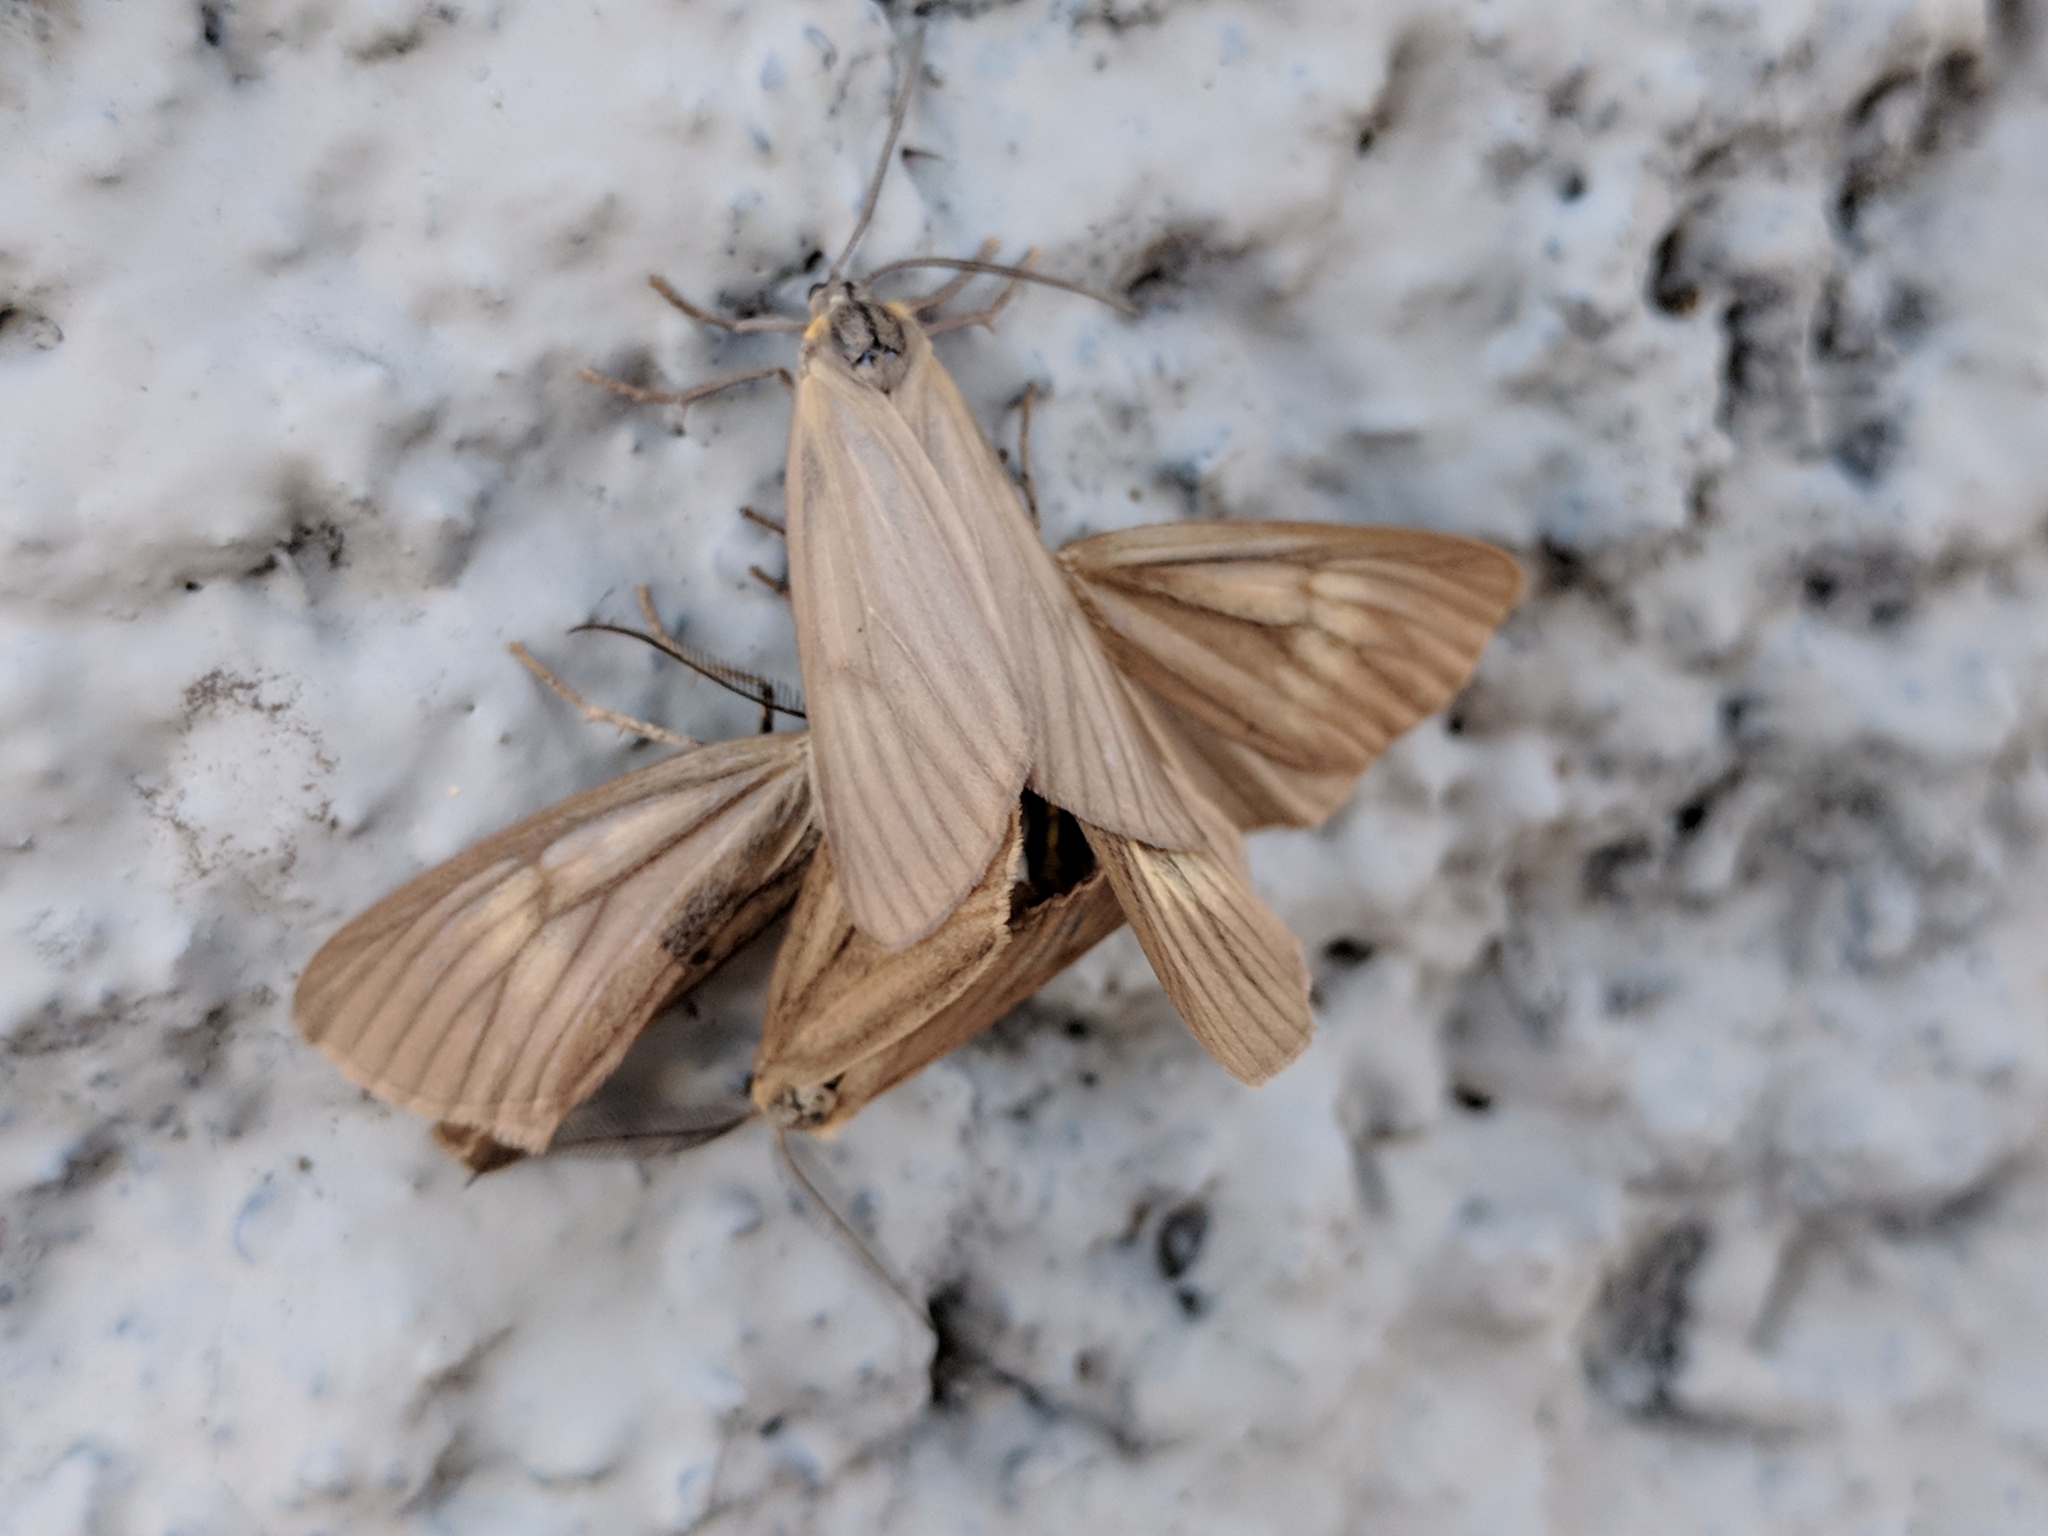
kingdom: Animalia
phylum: Arthropoda
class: Insecta
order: Lepidoptera
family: Notodontidae
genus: Phryganidia
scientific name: Phryganidia californica
